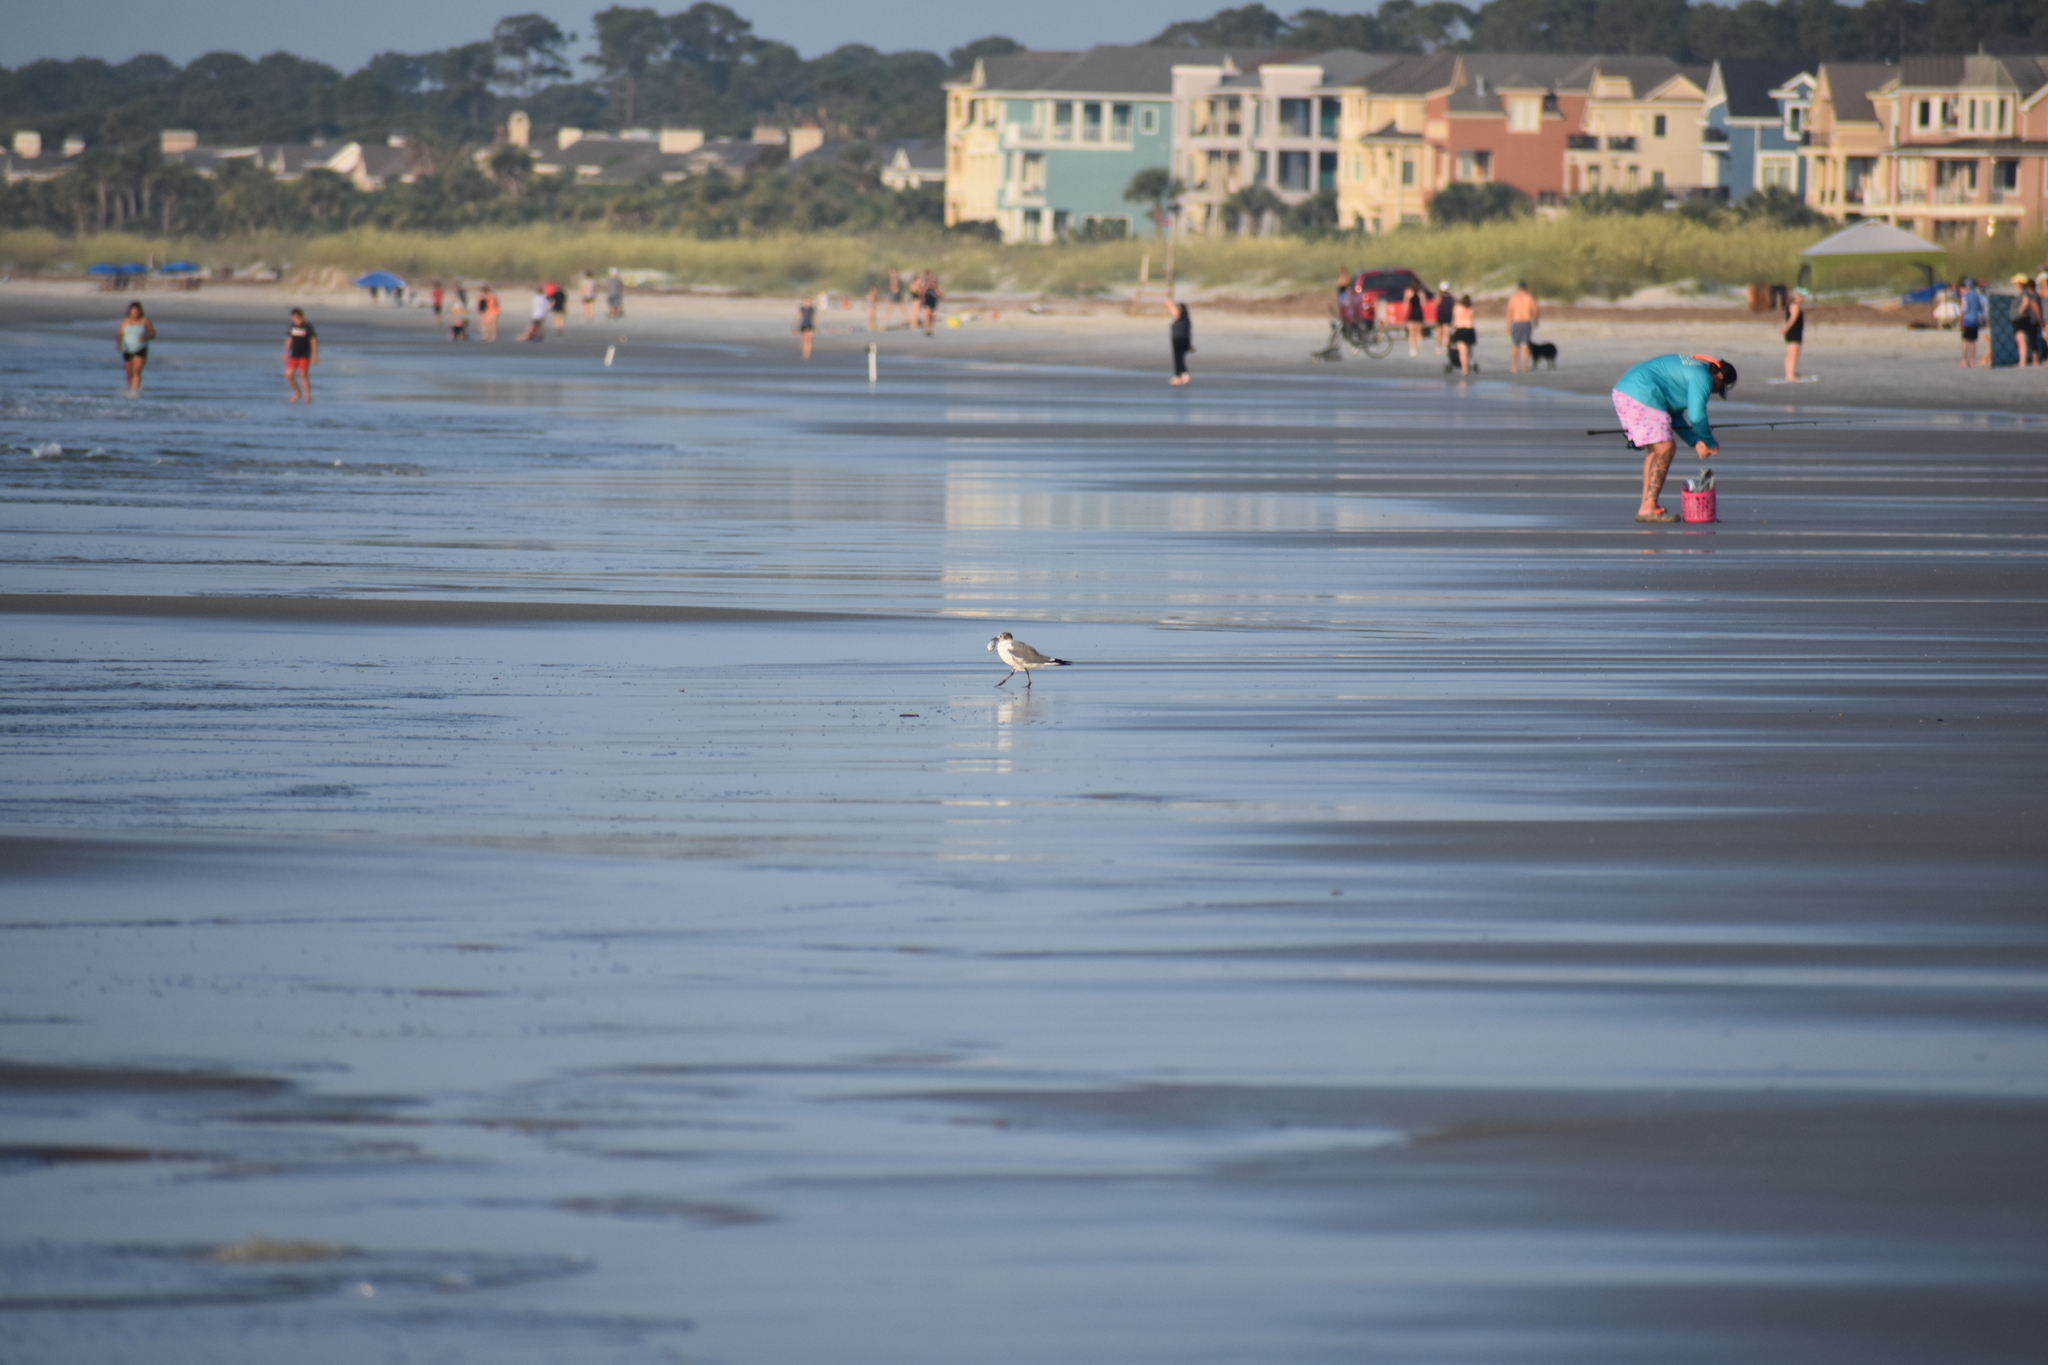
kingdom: Animalia
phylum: Chordata
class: Aves
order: Charadriiformes
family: Laridae
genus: Leucophaeus
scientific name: Leucophaeus atricilla
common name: Laughing gull
